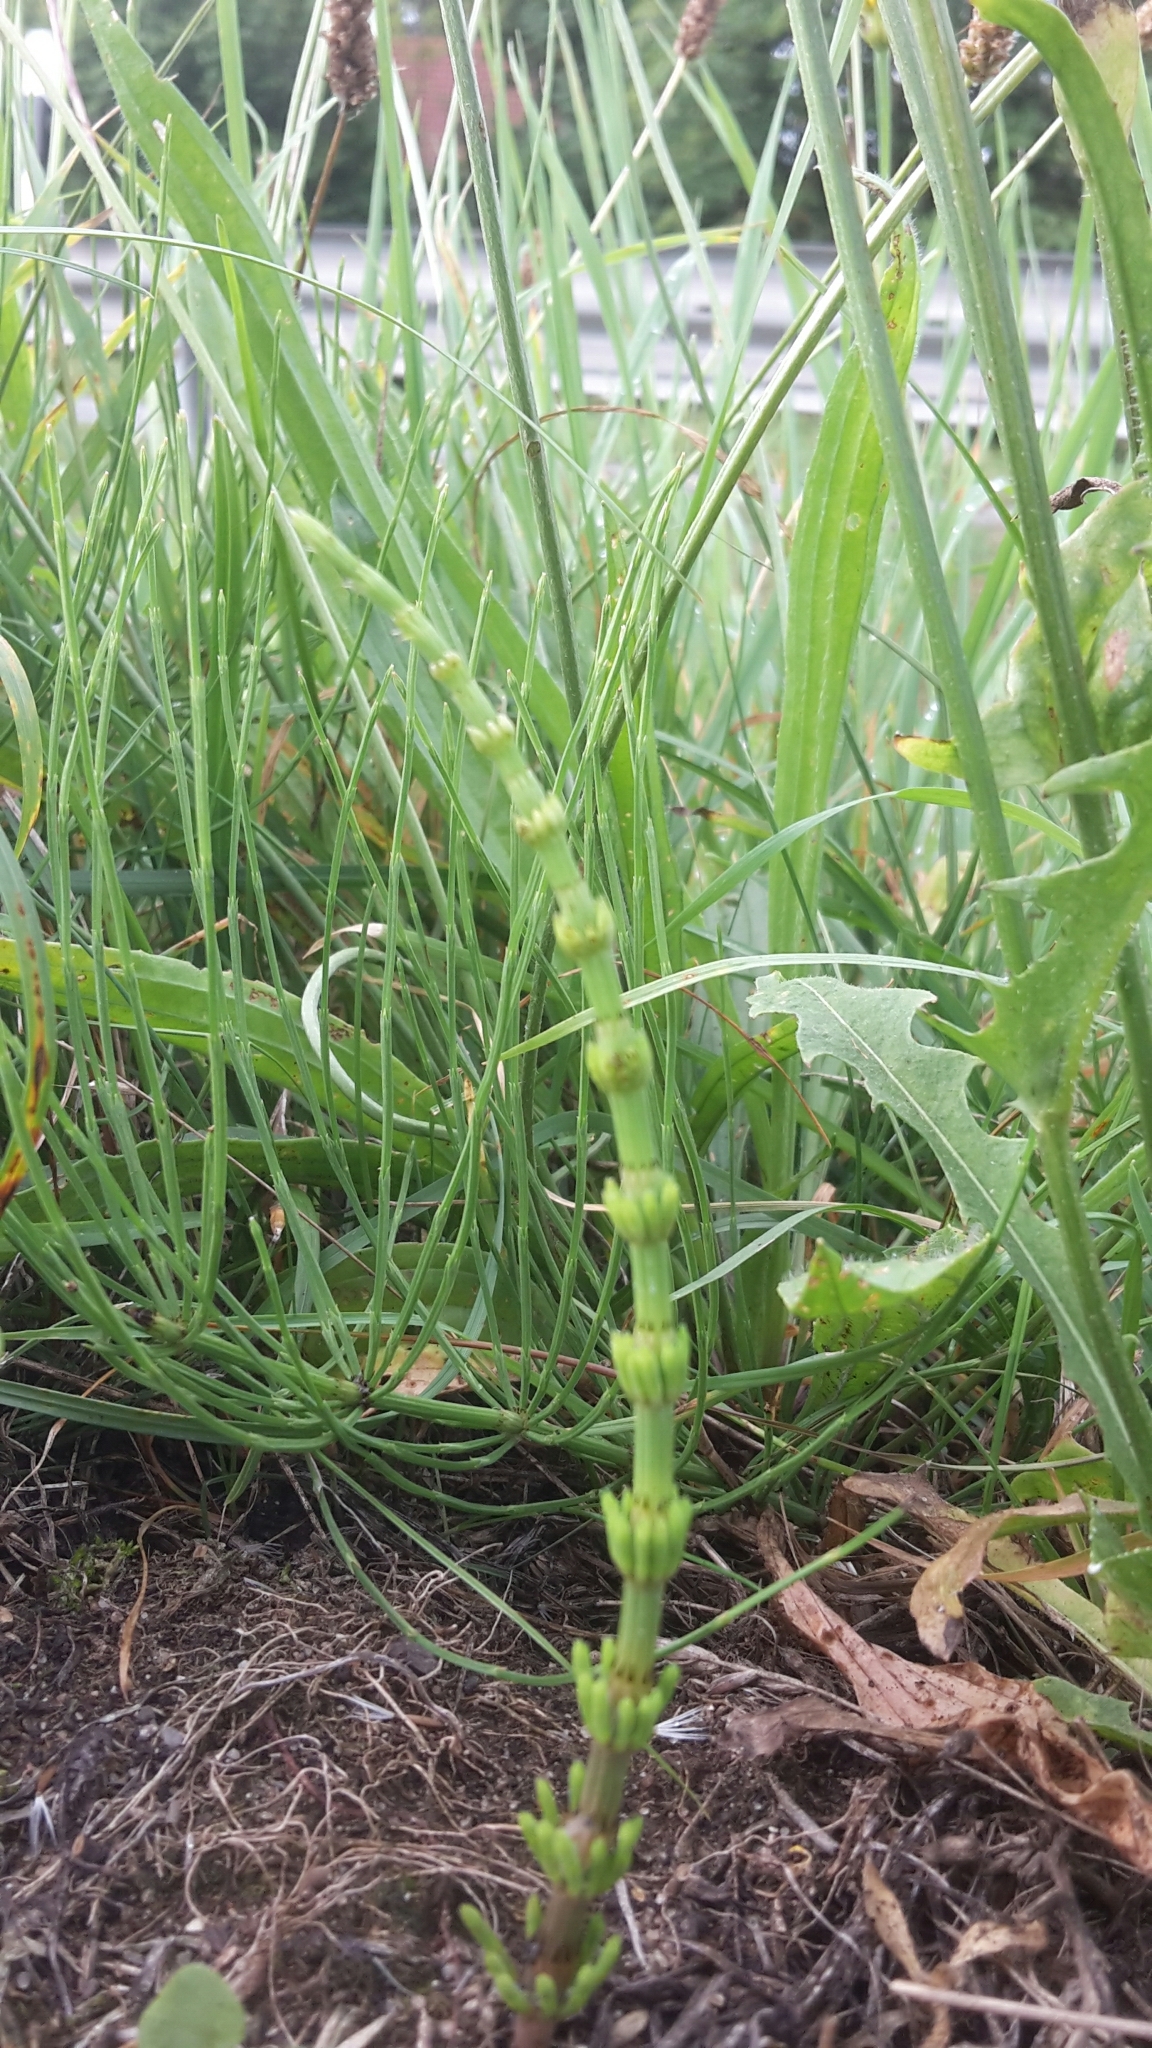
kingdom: Plantae
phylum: Tracheophyta
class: Polypodiopsida
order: Equisetales
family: Equisetaceae
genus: Equisetum
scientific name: Equisetum arvense
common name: Field horsetail
